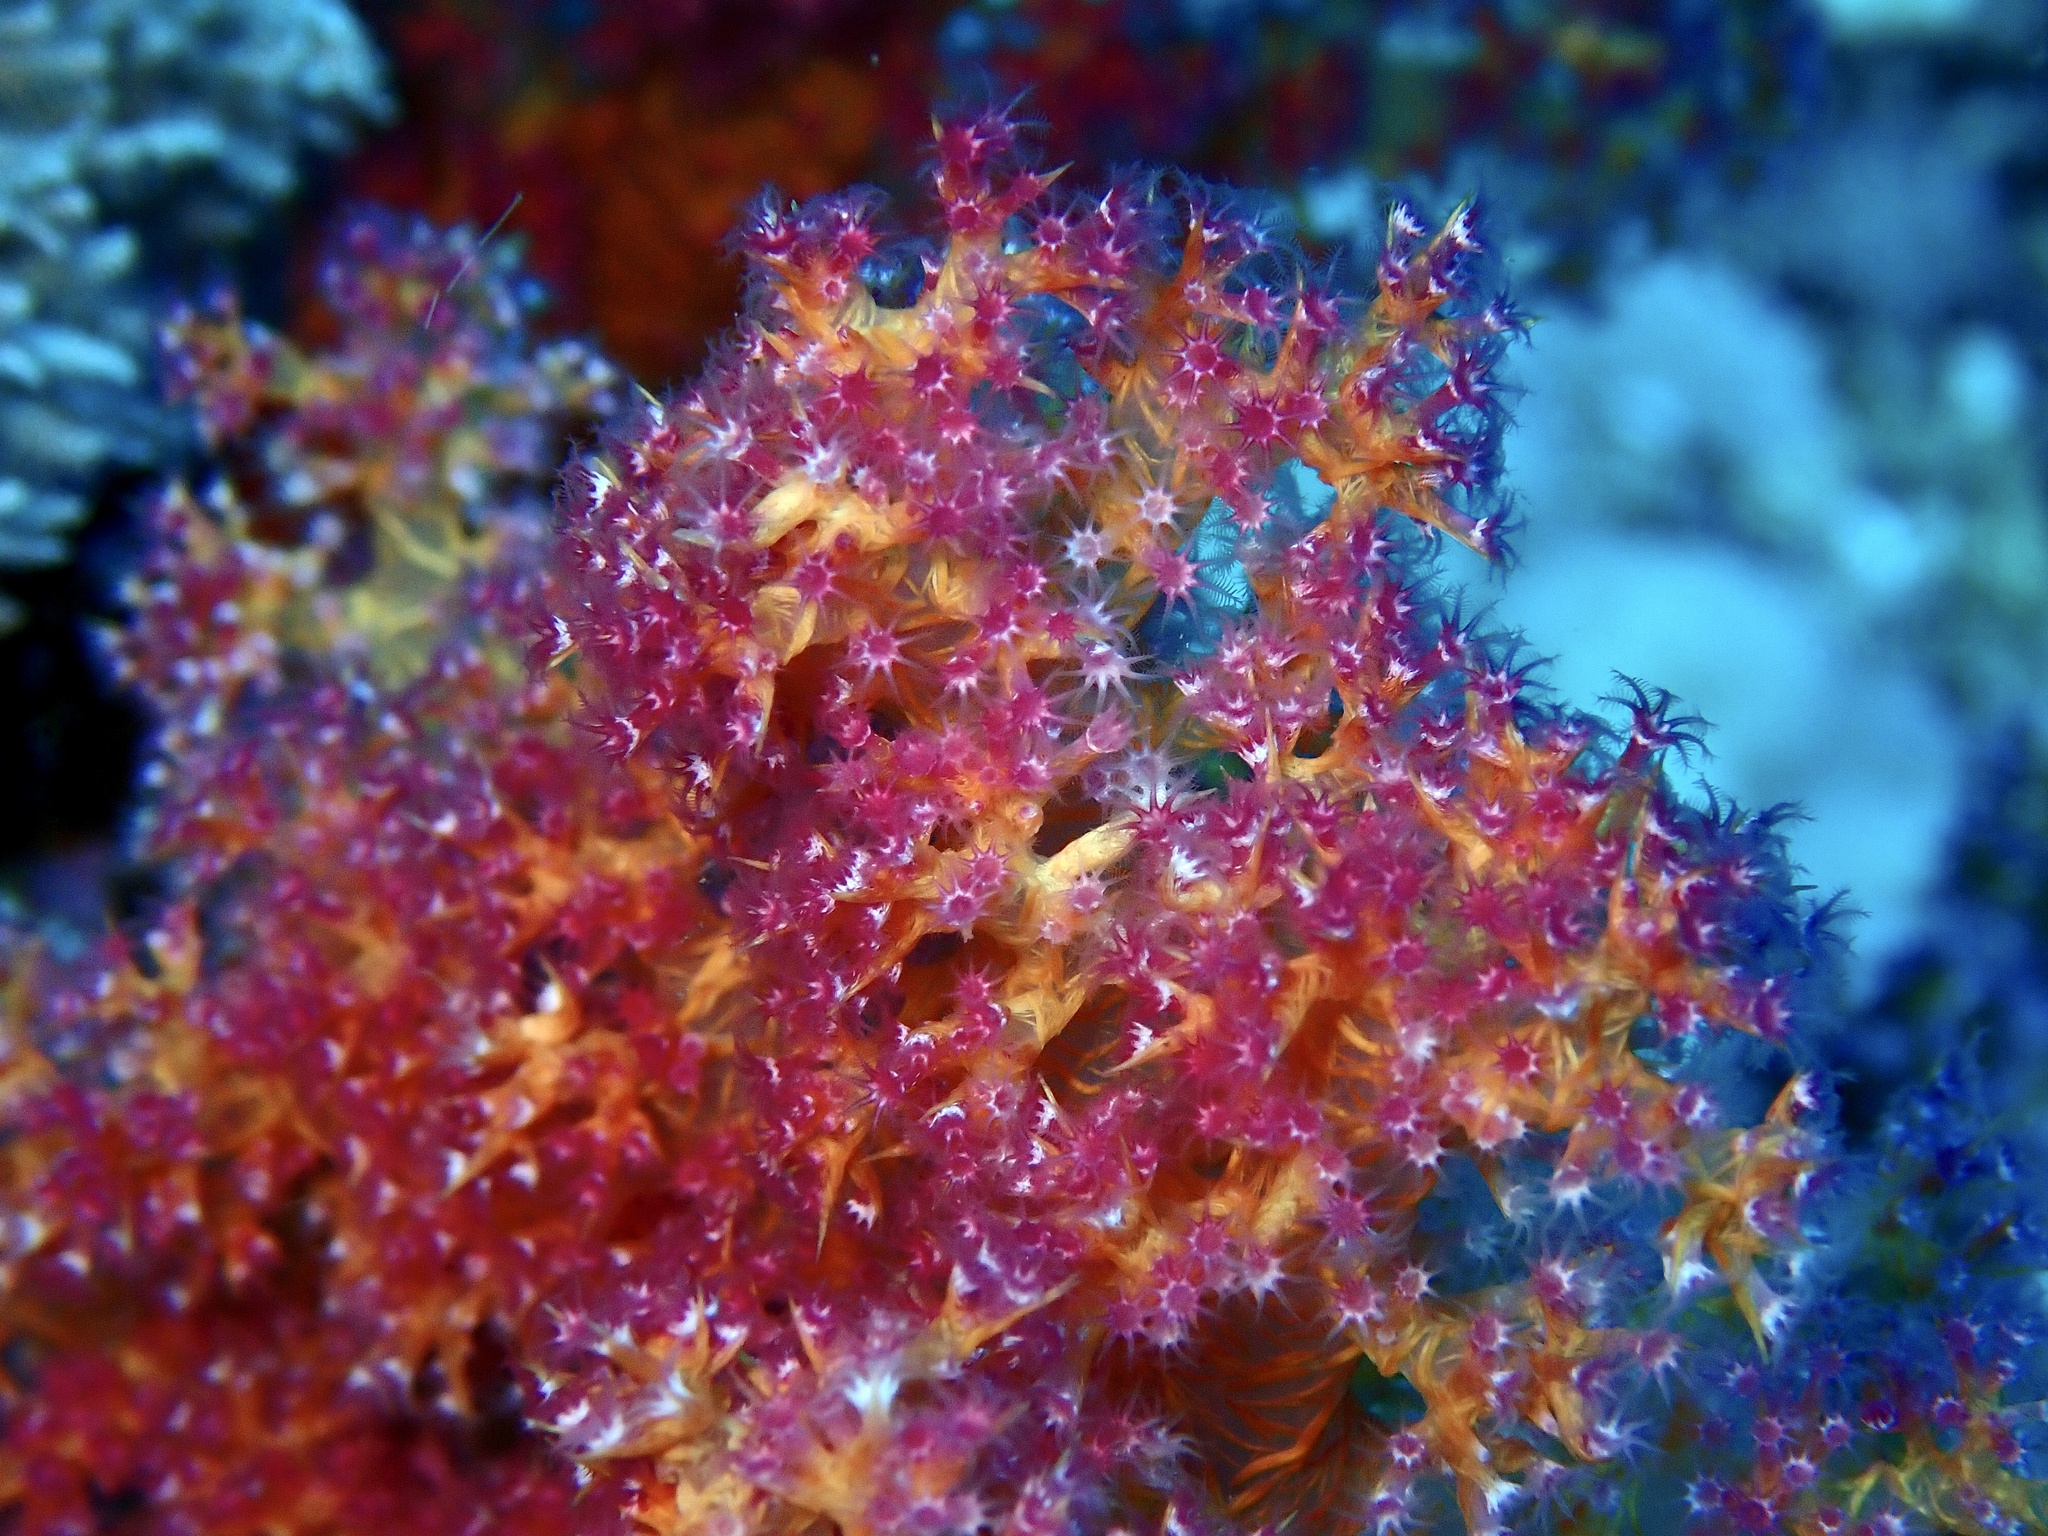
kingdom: Animalia
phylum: Cnidaria
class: Anthozoa
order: Malacalcyonacea
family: Nephtheidae
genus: Dendronephthya
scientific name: Dendronephthya hemprichi
